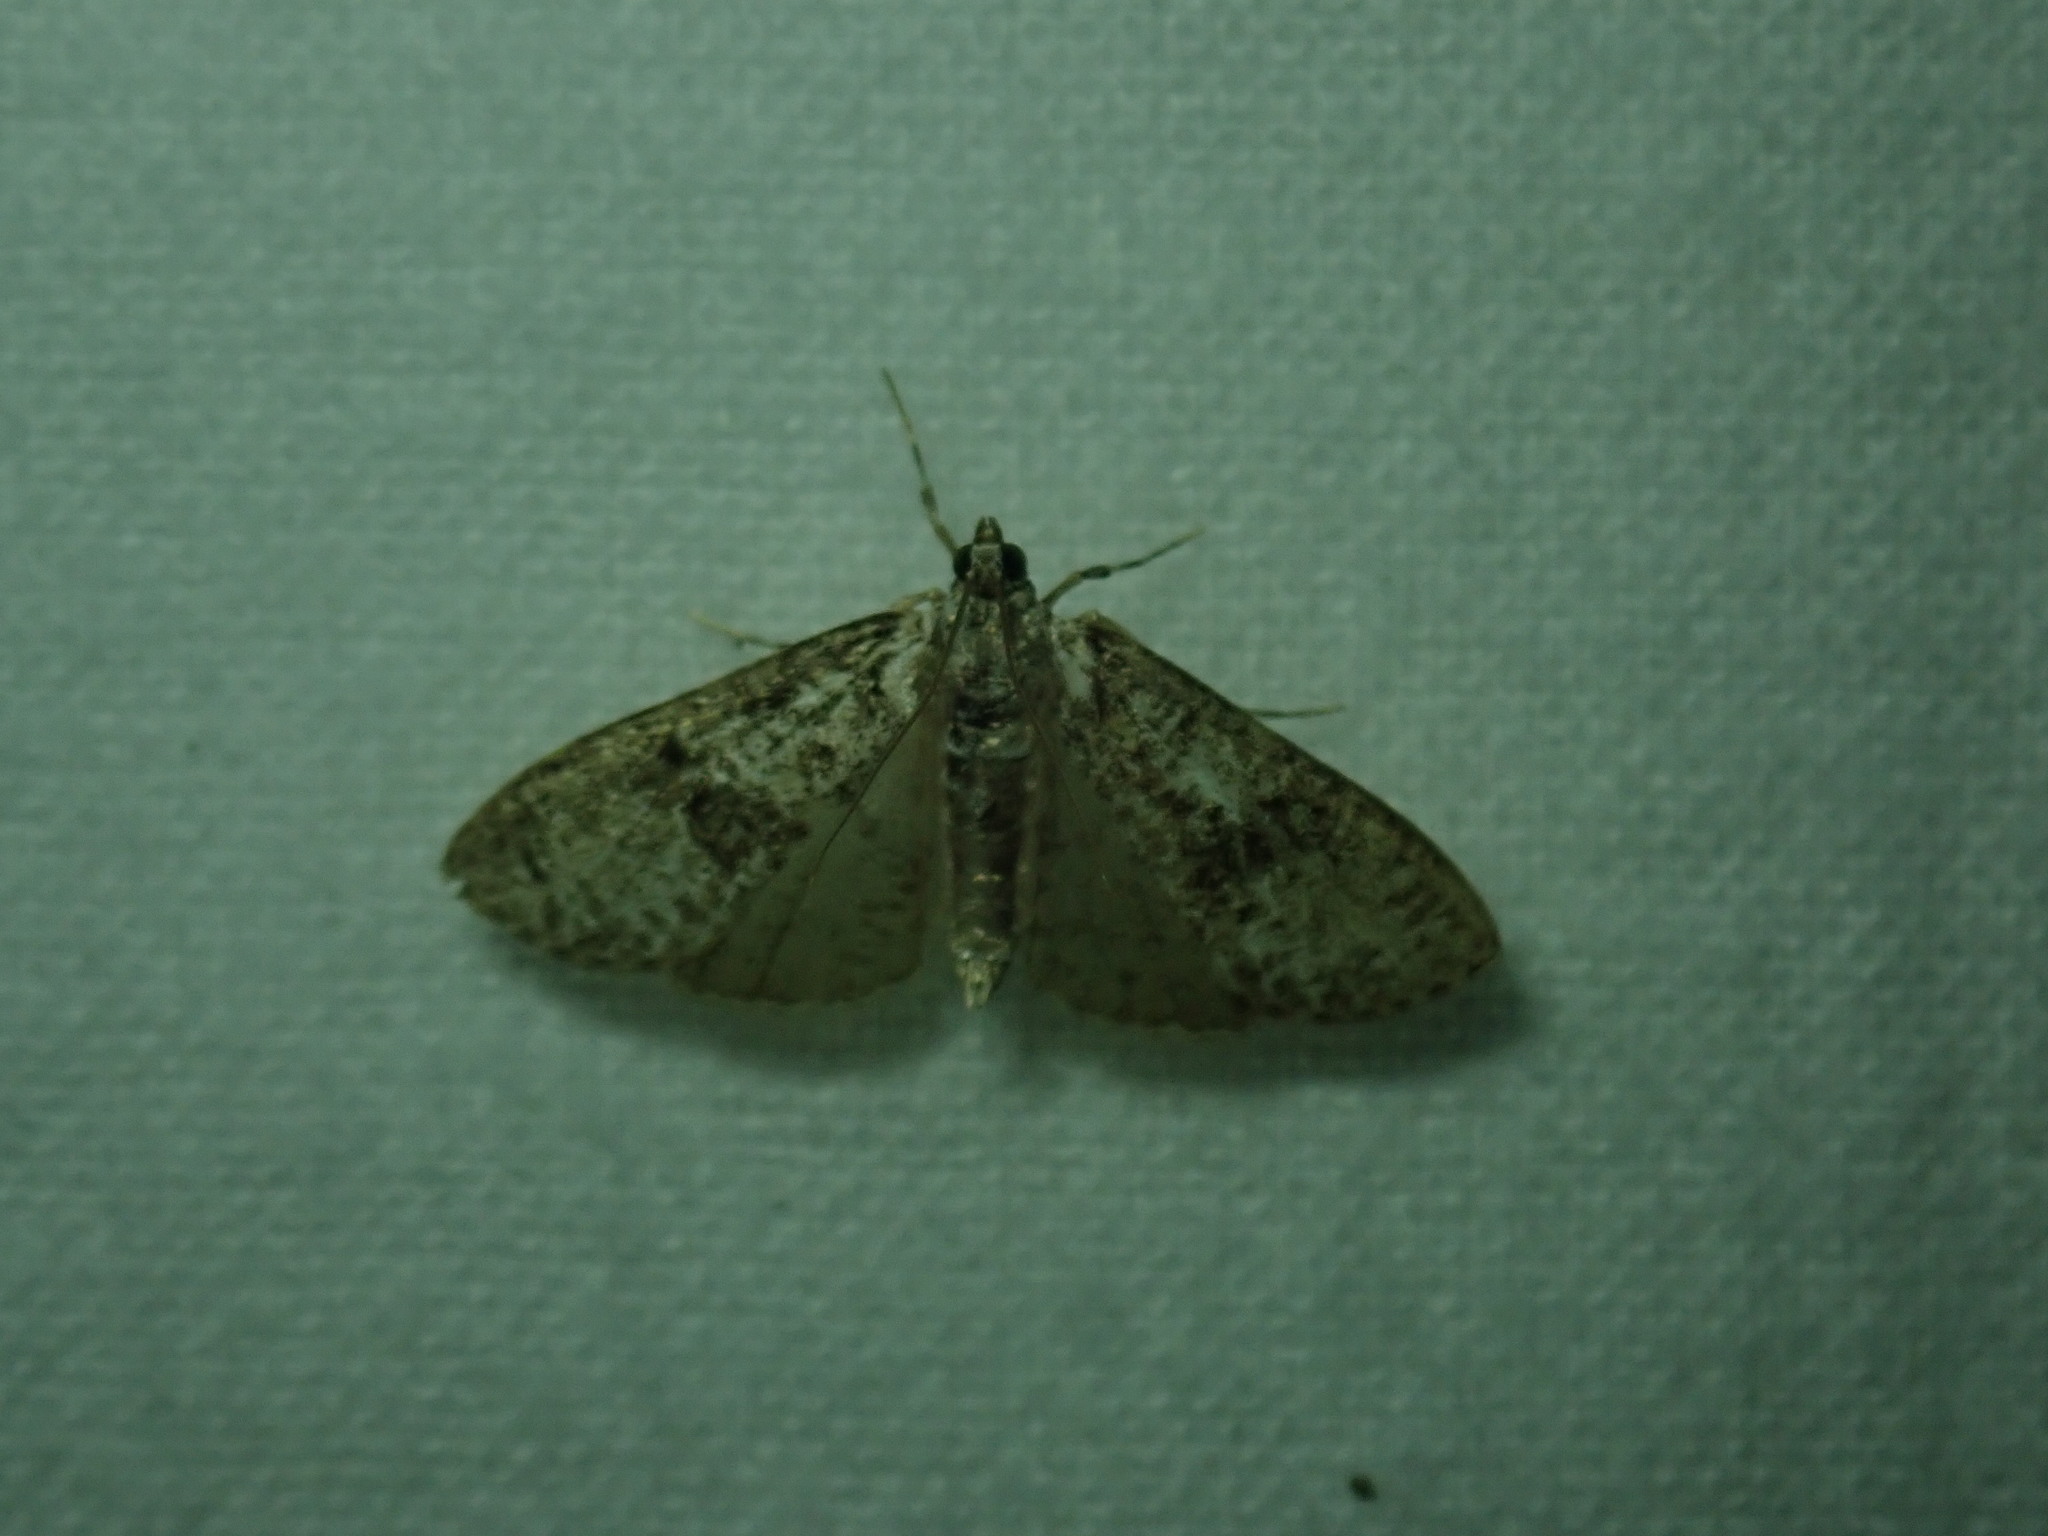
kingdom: Animalia
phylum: Arthropoda
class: Insecta
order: Lepidoptera
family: Crambidae
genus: Palpita
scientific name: Palpita magniferalis
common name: Splendid palpita moth
